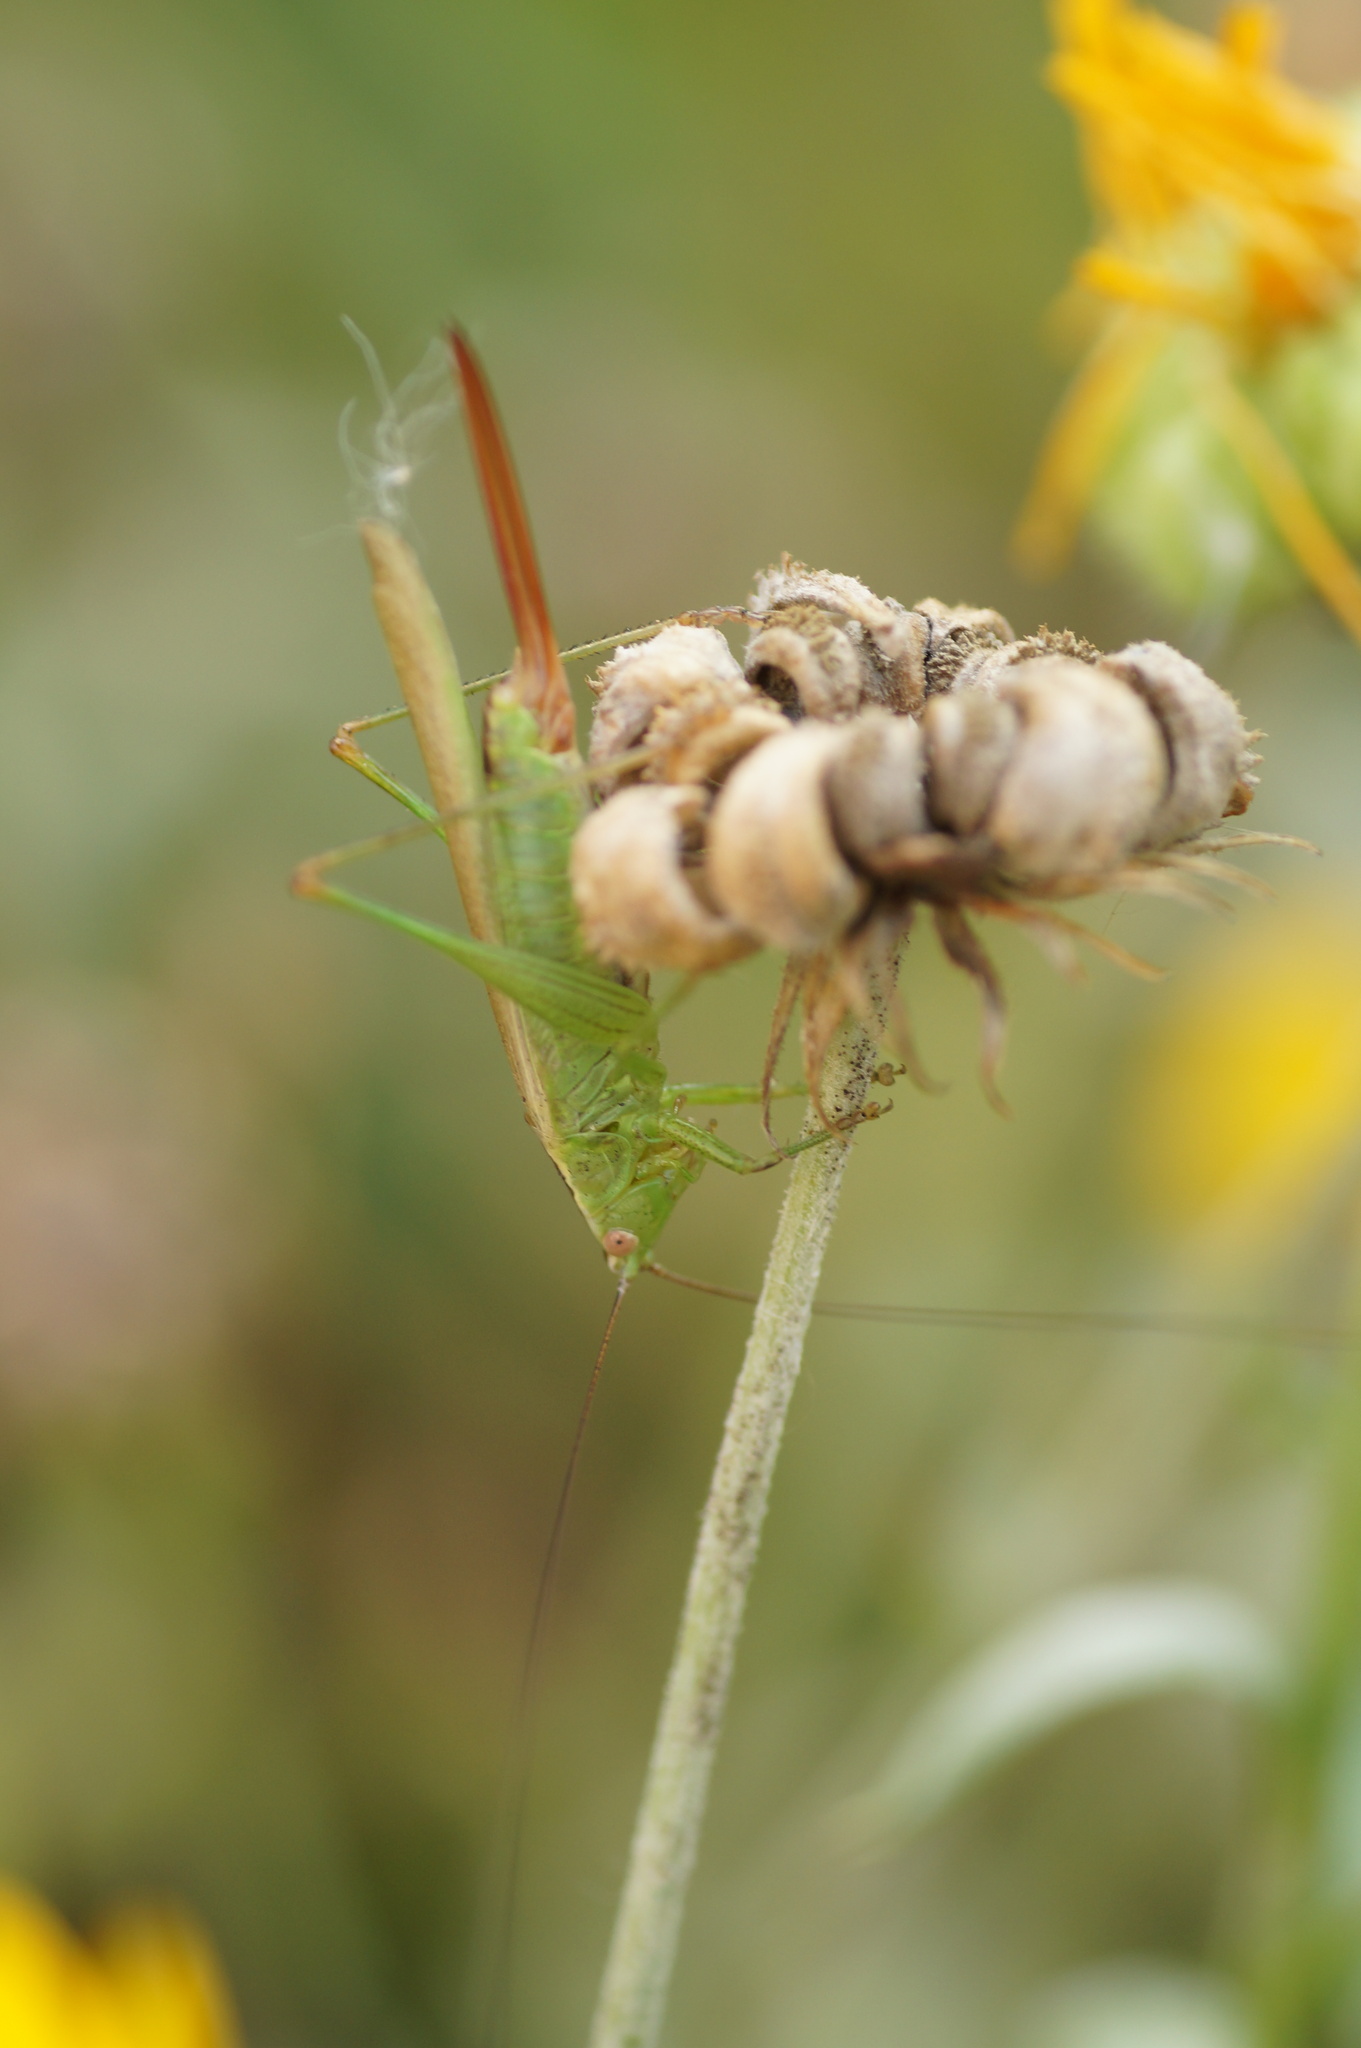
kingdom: Animalia
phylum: Arthropoda
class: Insecta
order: Orthoptera
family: Tettigoniidae
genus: Conocephalus
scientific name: Conocephalus fuscus
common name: Long-winged conehead
